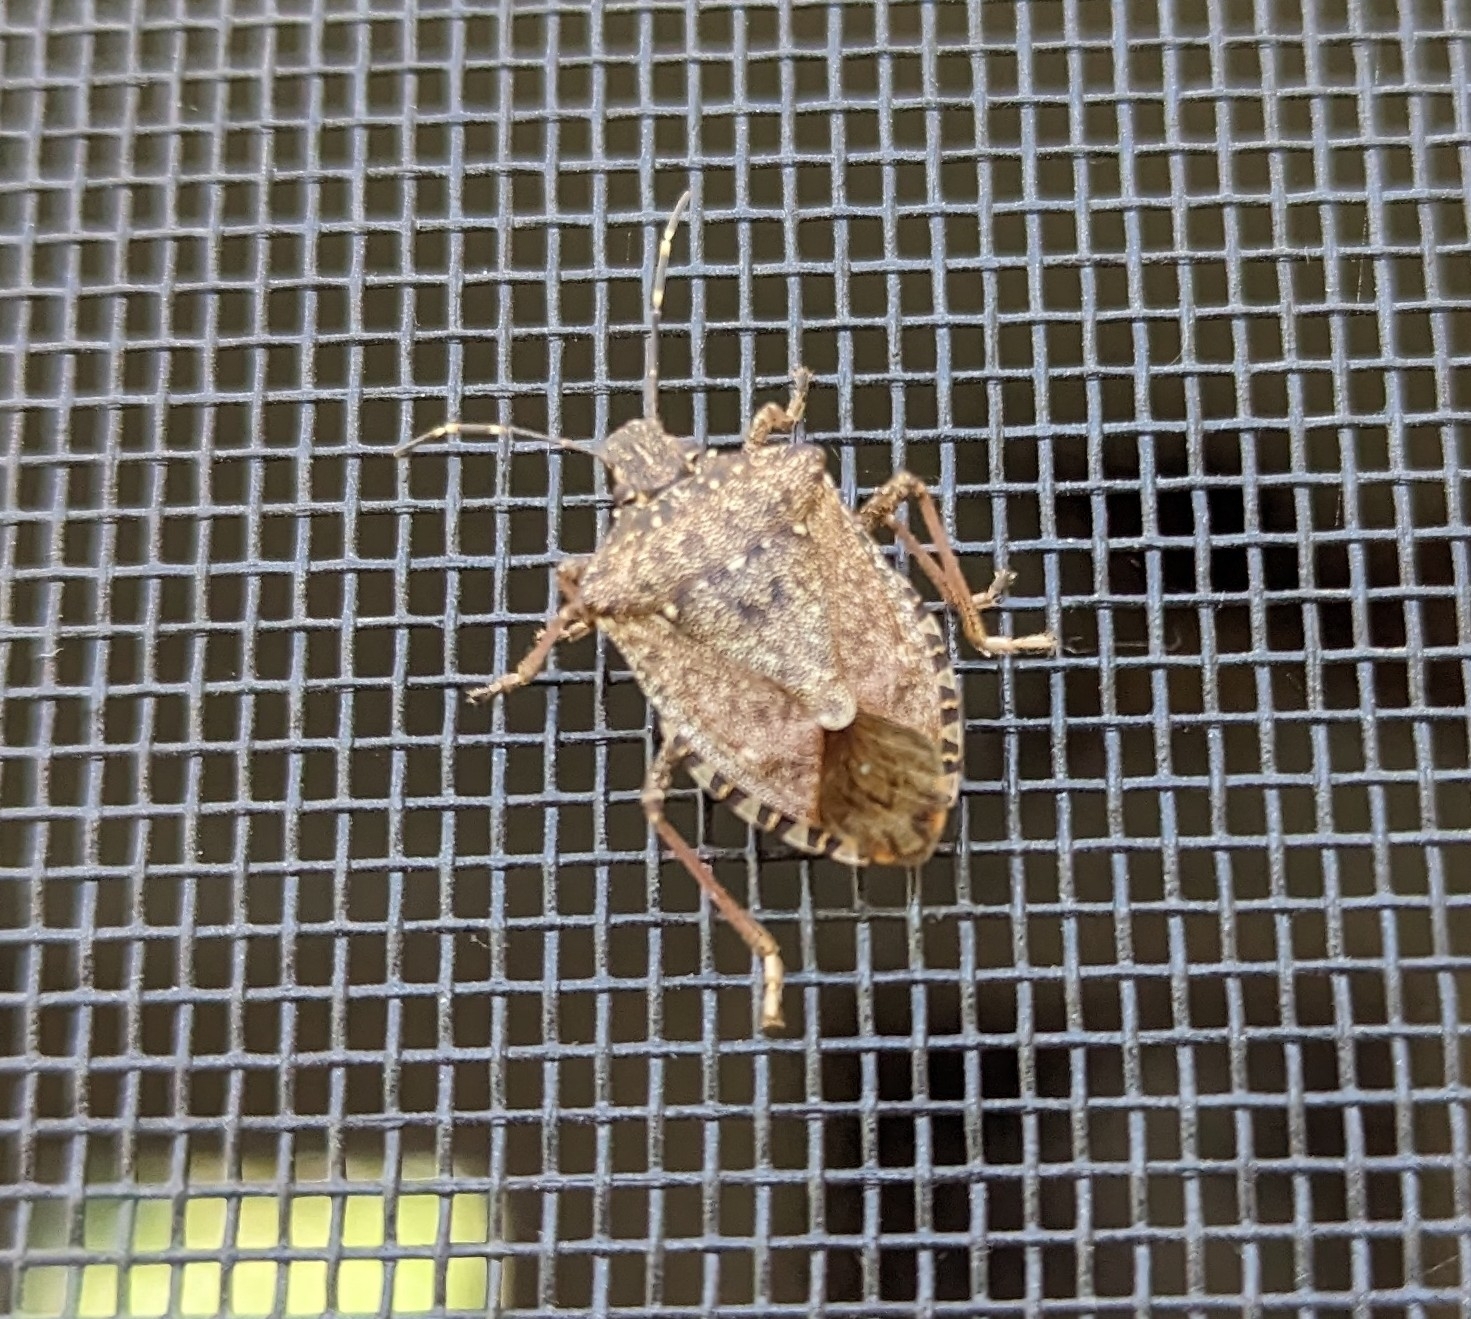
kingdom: Animalia
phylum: Arthropoda
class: Insecta
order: Hemiptera
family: Pentatomidae
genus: Halyomorpha
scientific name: Halyomorpha halys
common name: Brown marmorated stink bug
